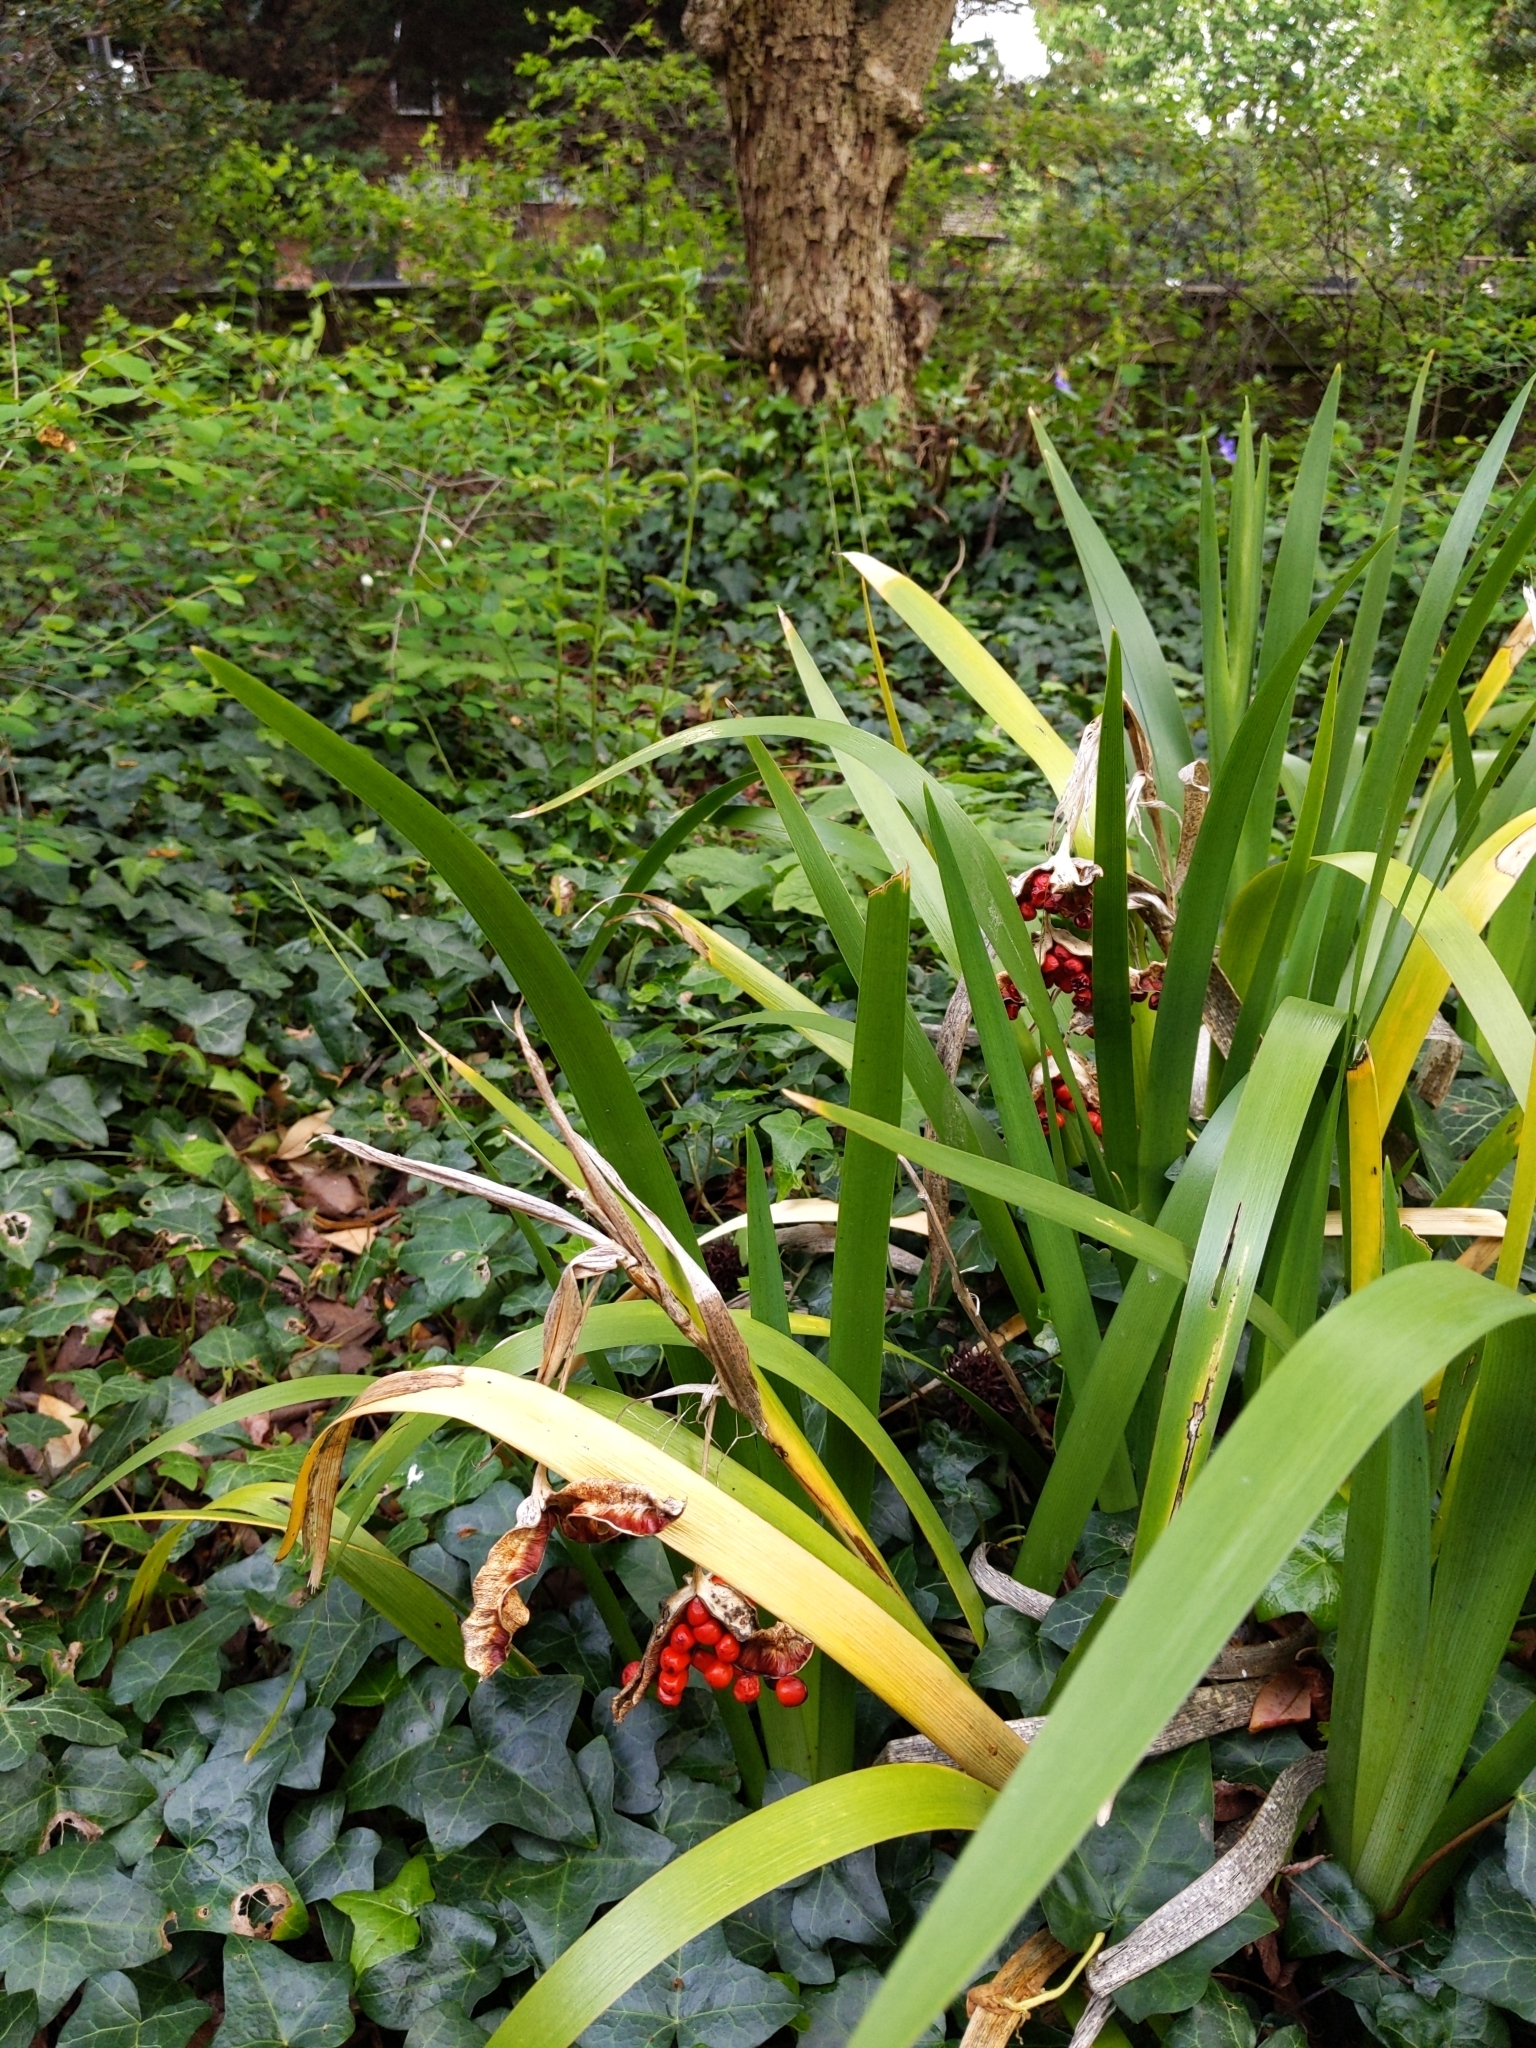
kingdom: Plantae
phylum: Tracheophyta
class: Liliopsida
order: Asparagales
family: Iridaceae
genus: Iris
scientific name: Iris foetidissima
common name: Stinking iris
